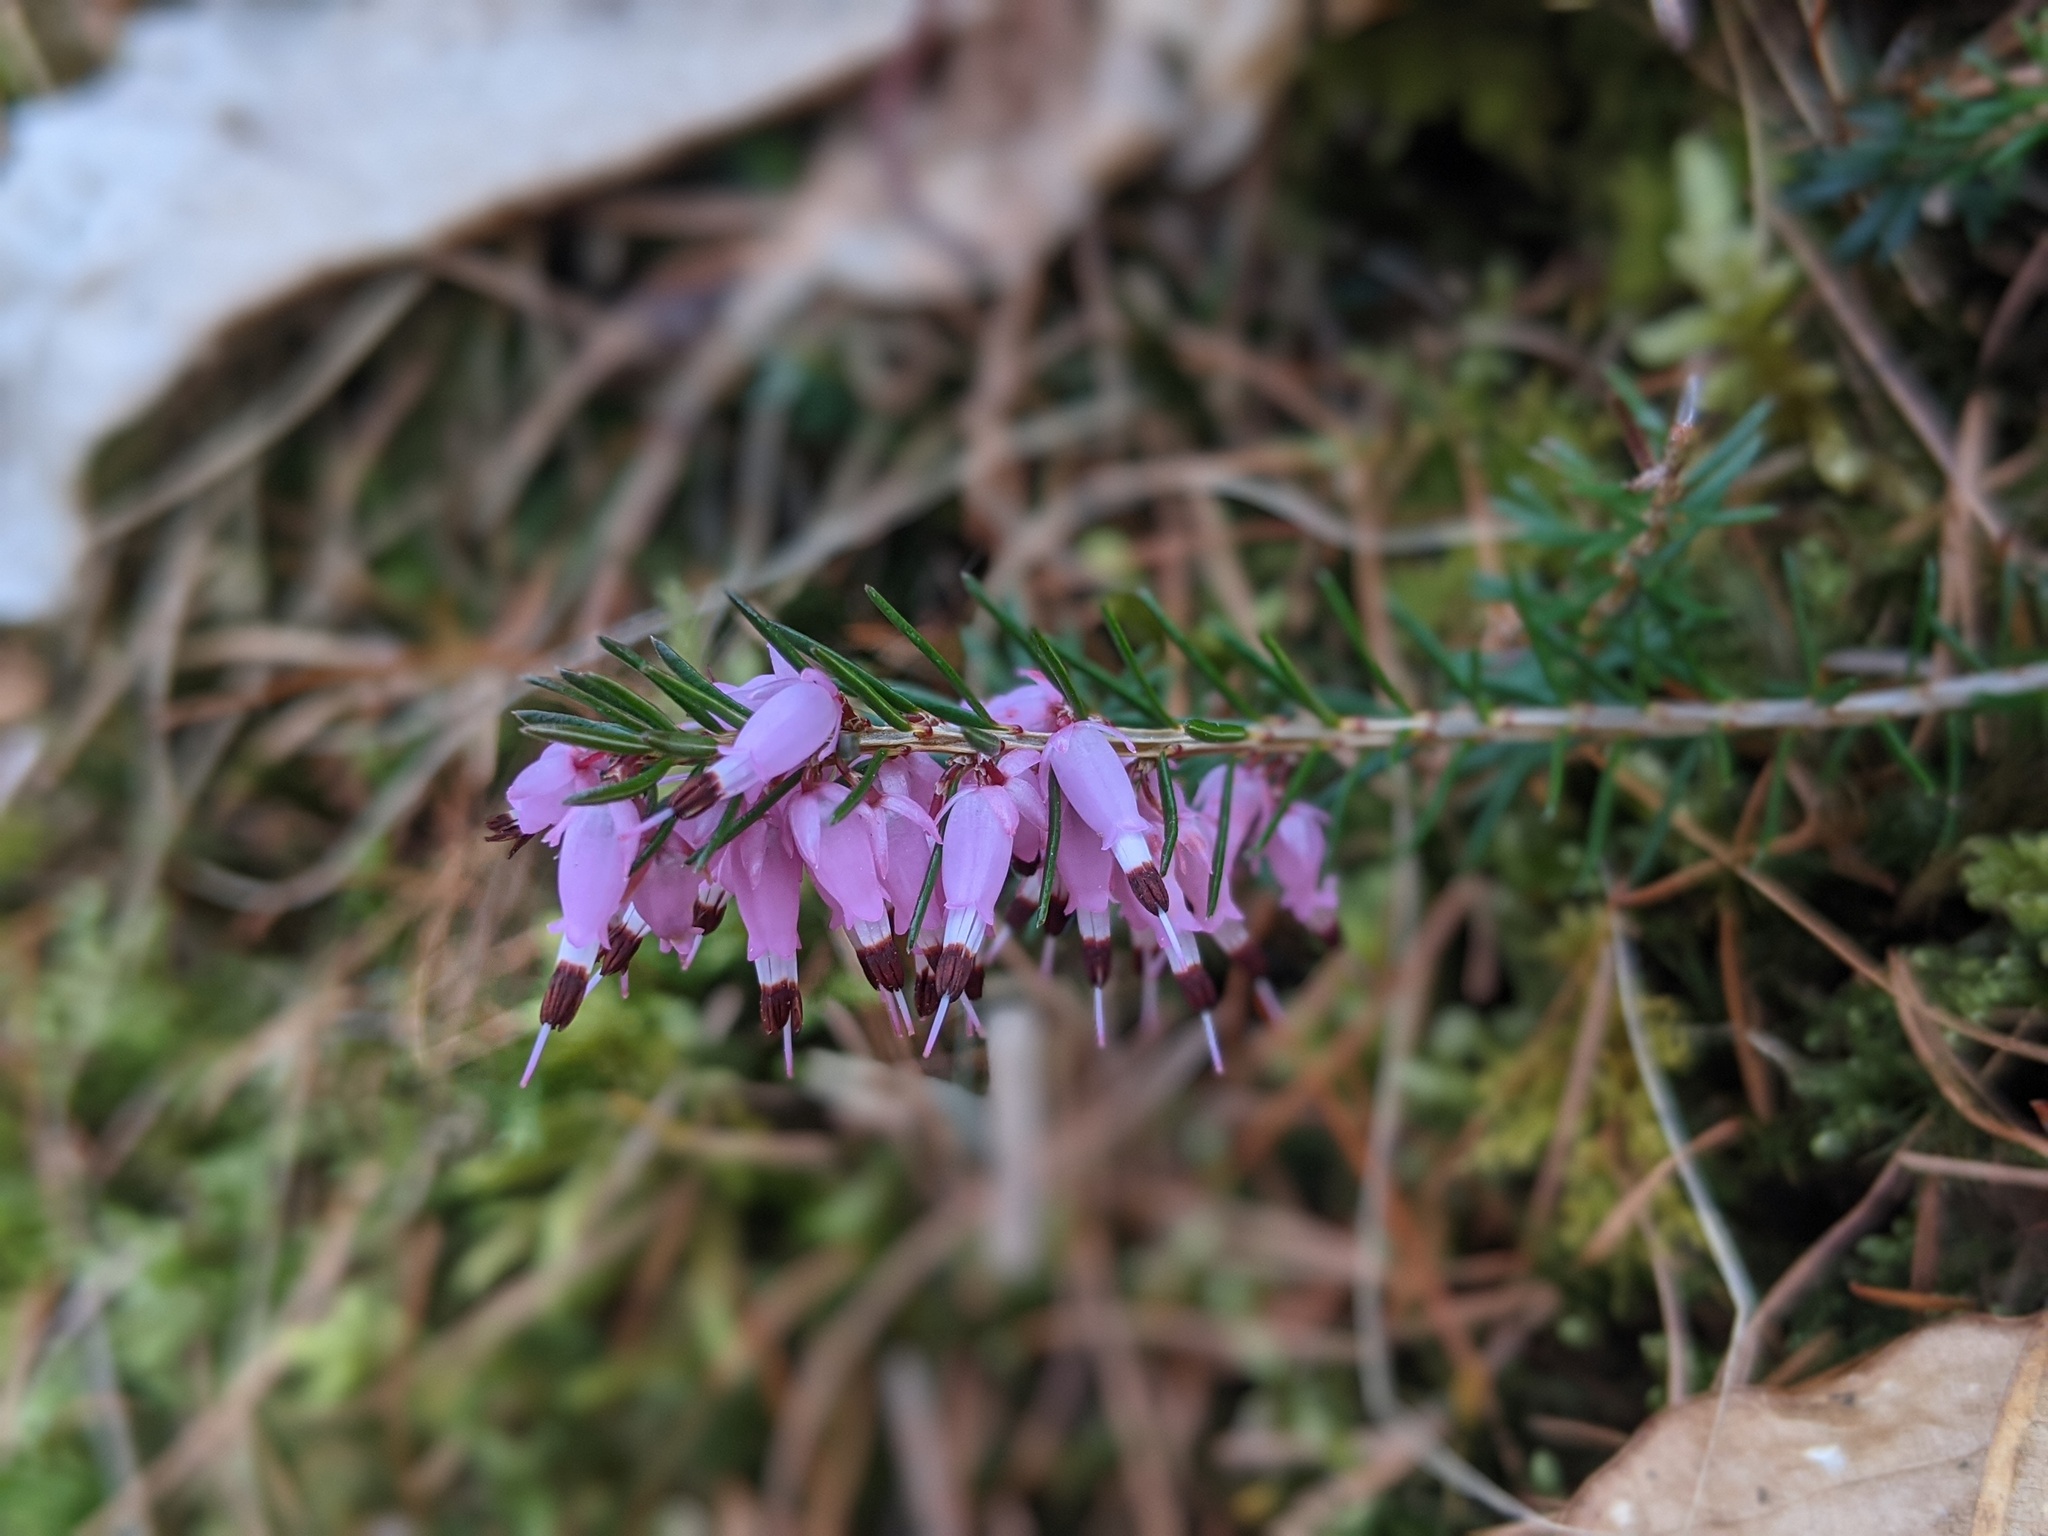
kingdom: Plantae
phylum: Tracheophyta
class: Magnoliopsida
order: Ericales
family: Ericaceae
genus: Erica
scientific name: Erica carnea
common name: Winter heath
